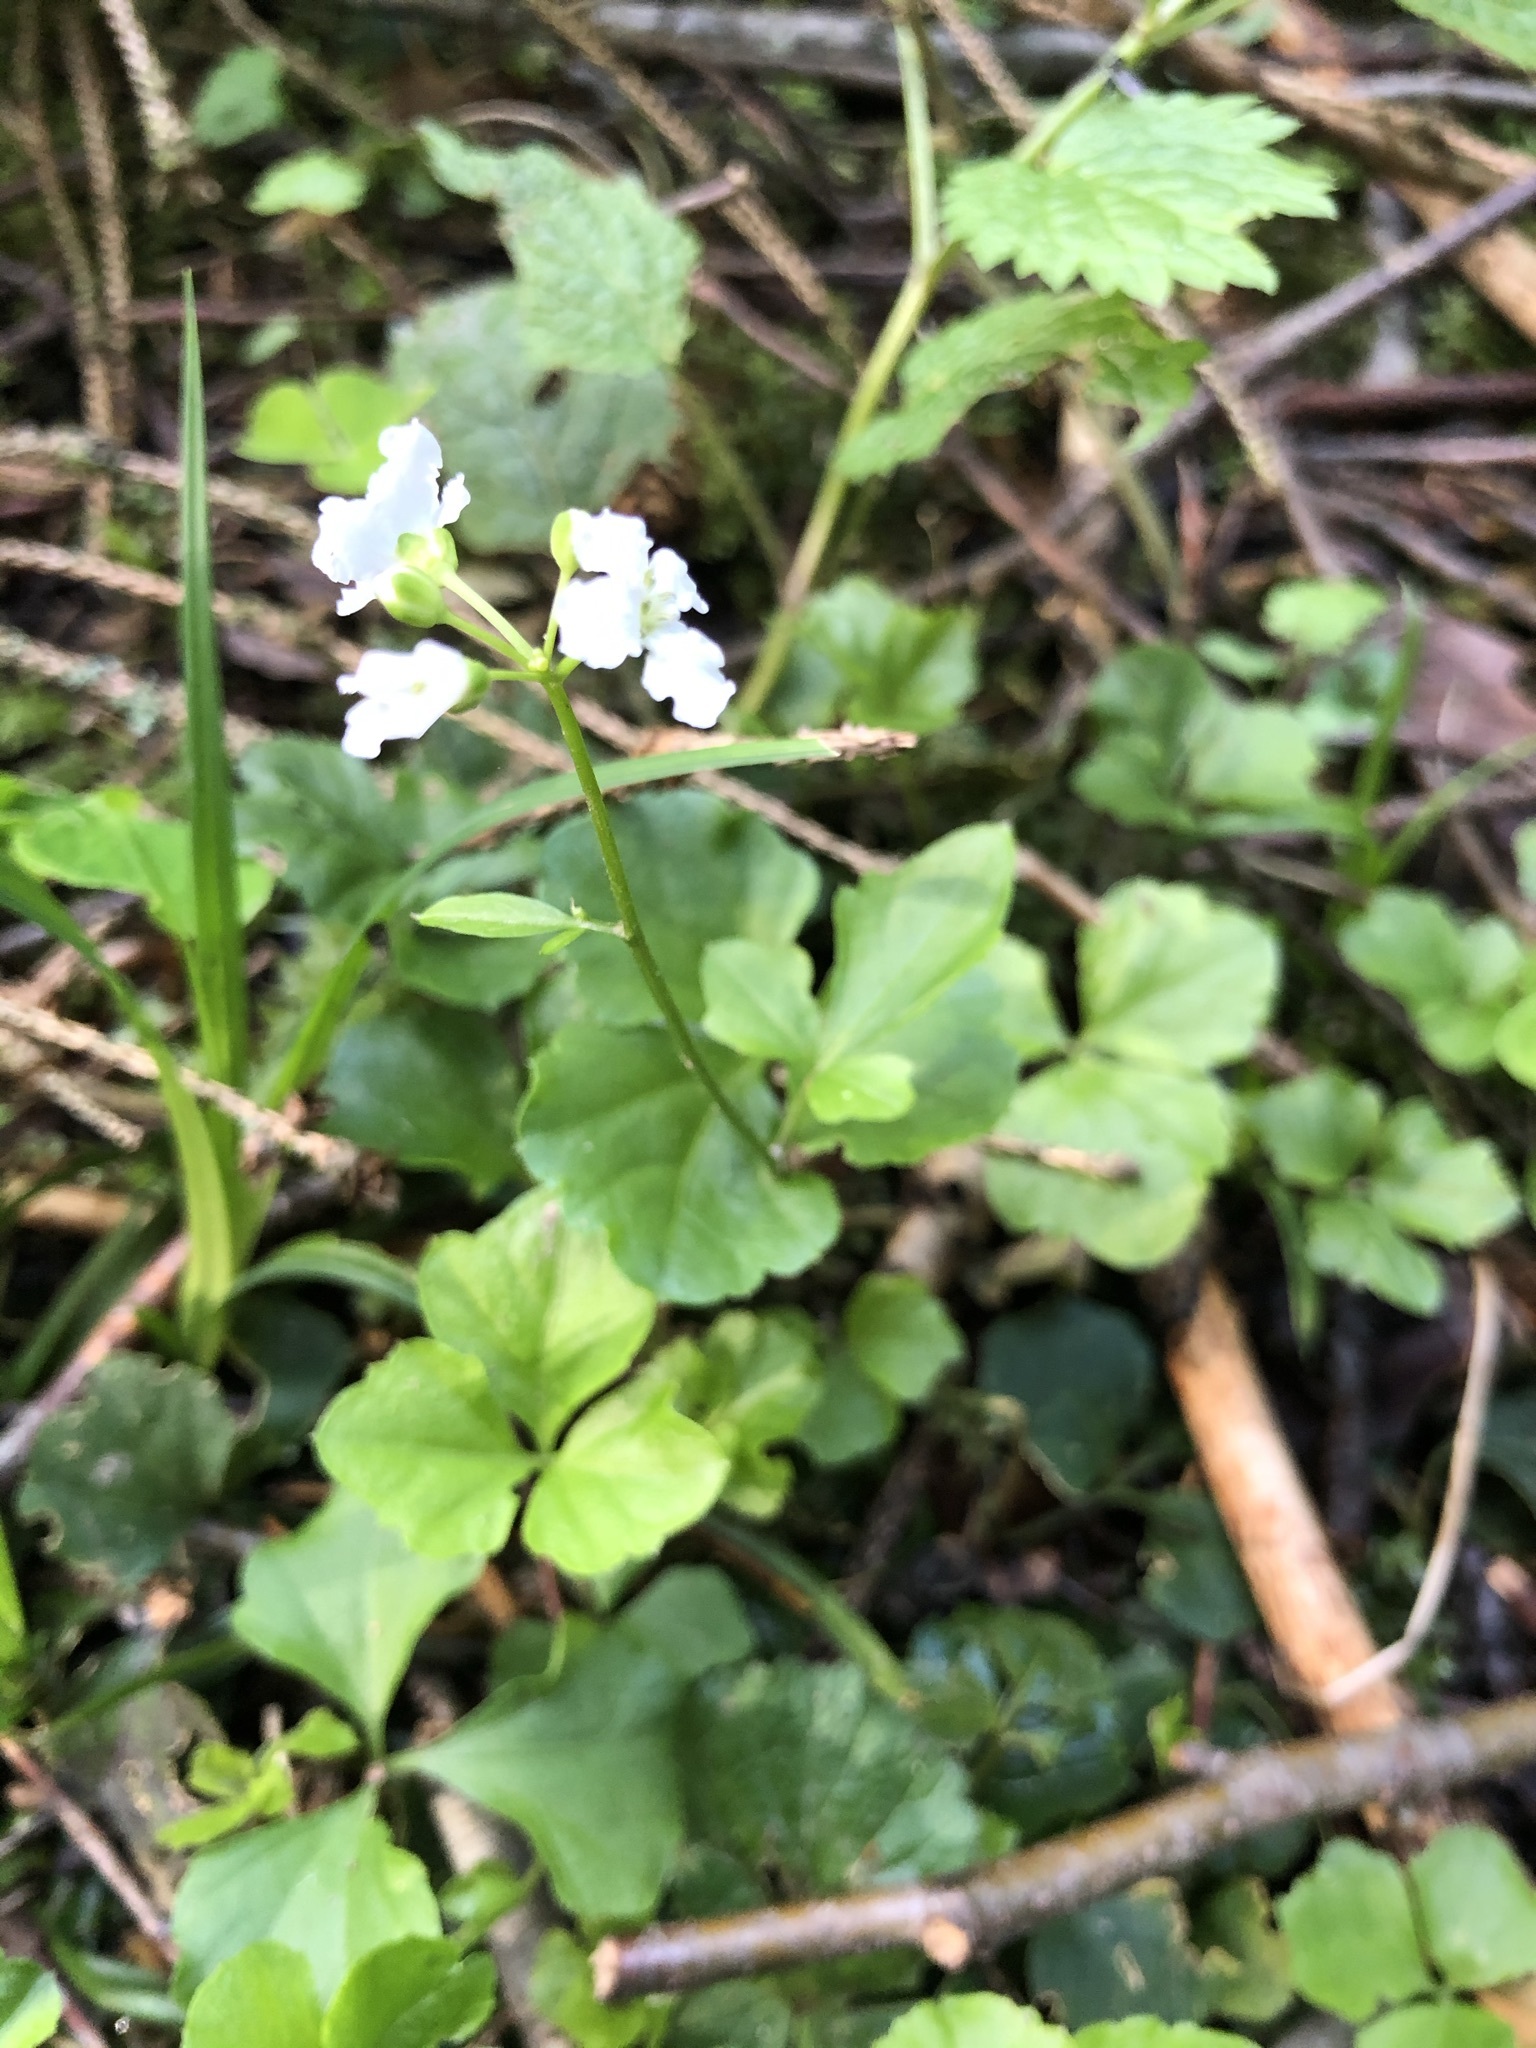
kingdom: Plantae
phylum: Tracheophyta
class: Magnoliopsida
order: Brassicales
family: Brassicaceae
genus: Cardamine
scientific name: Cardamine trifolia
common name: Trefoil cress
